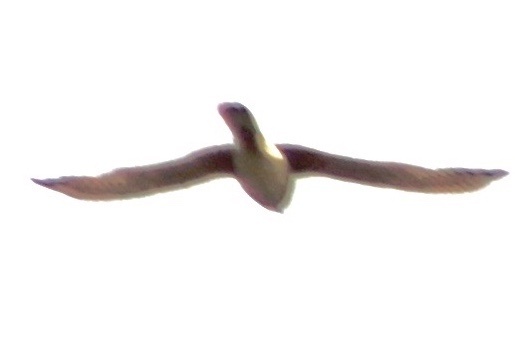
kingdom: Animalia
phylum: Chordata
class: Aves
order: Falconiformes
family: Falconidae
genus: Falco
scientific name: Falco sparverius
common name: American kestrel
